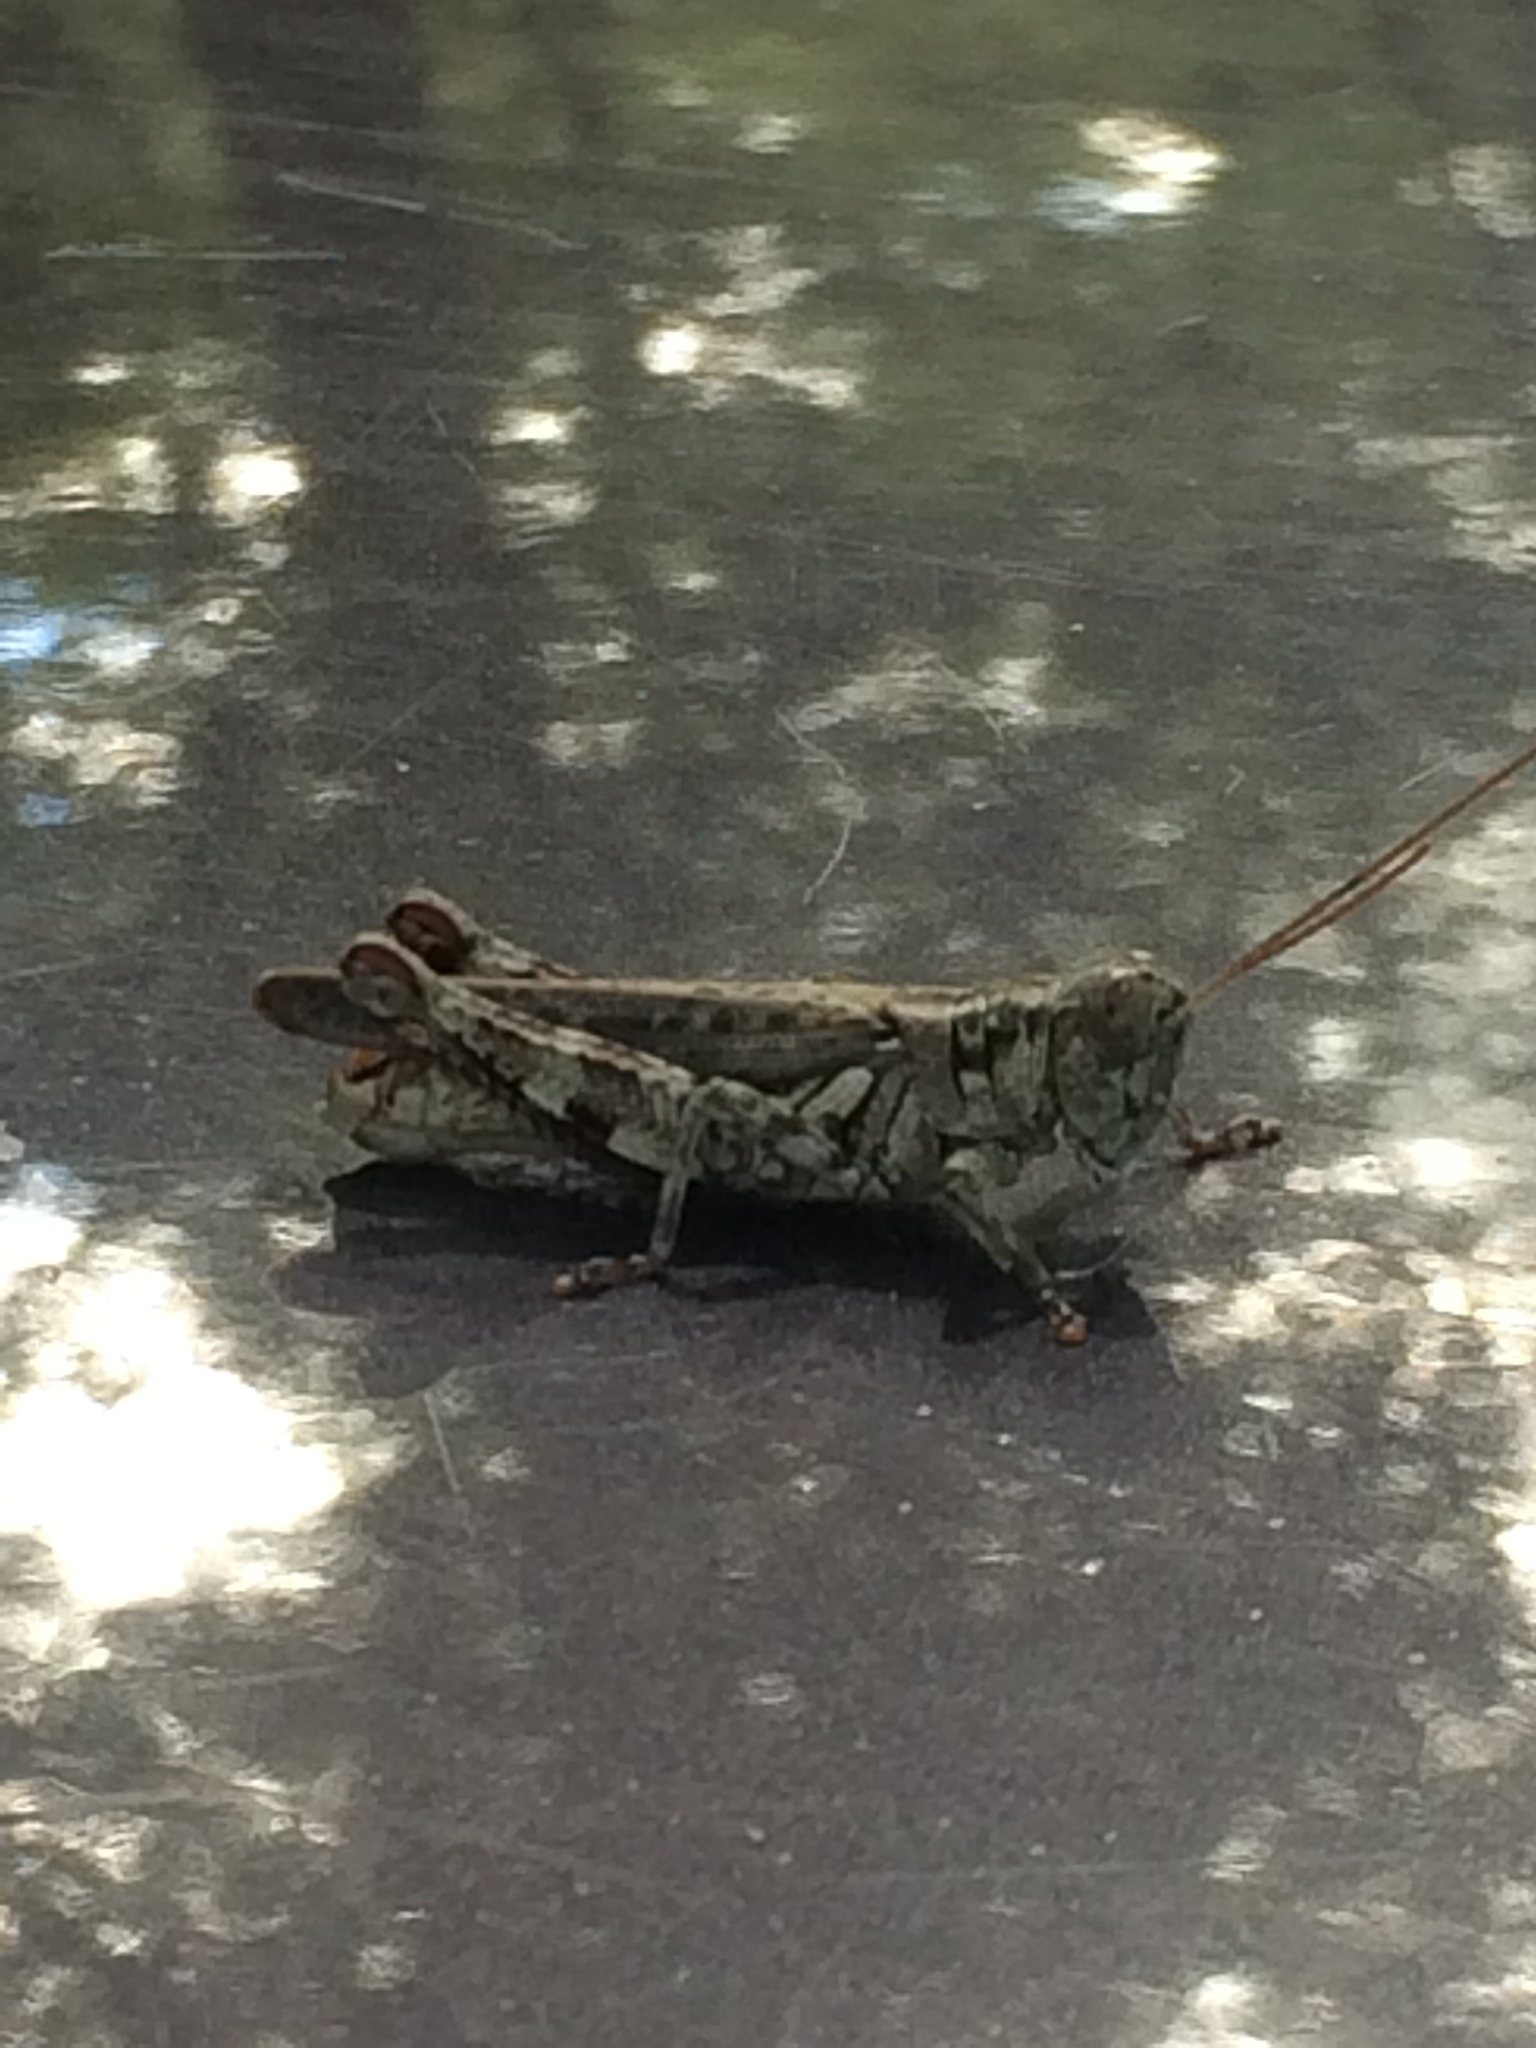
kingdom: Animalia
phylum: Arthropoda
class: Insecta
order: Orthoptera
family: Acrididae
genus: Melanoplus
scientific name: Melanoplus punctulatus
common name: Pine-tree spur-throat grasshopper
